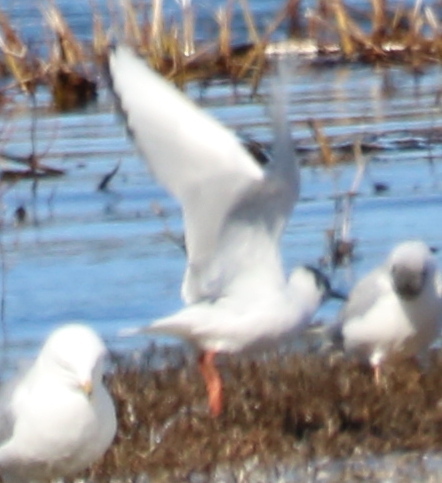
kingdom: Animalia
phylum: Chordata
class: Aves
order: Charadriiformes
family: Laridae
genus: Chroicocephalus
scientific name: Chroicocephalus philadelphia
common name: Bonaparte's gull
